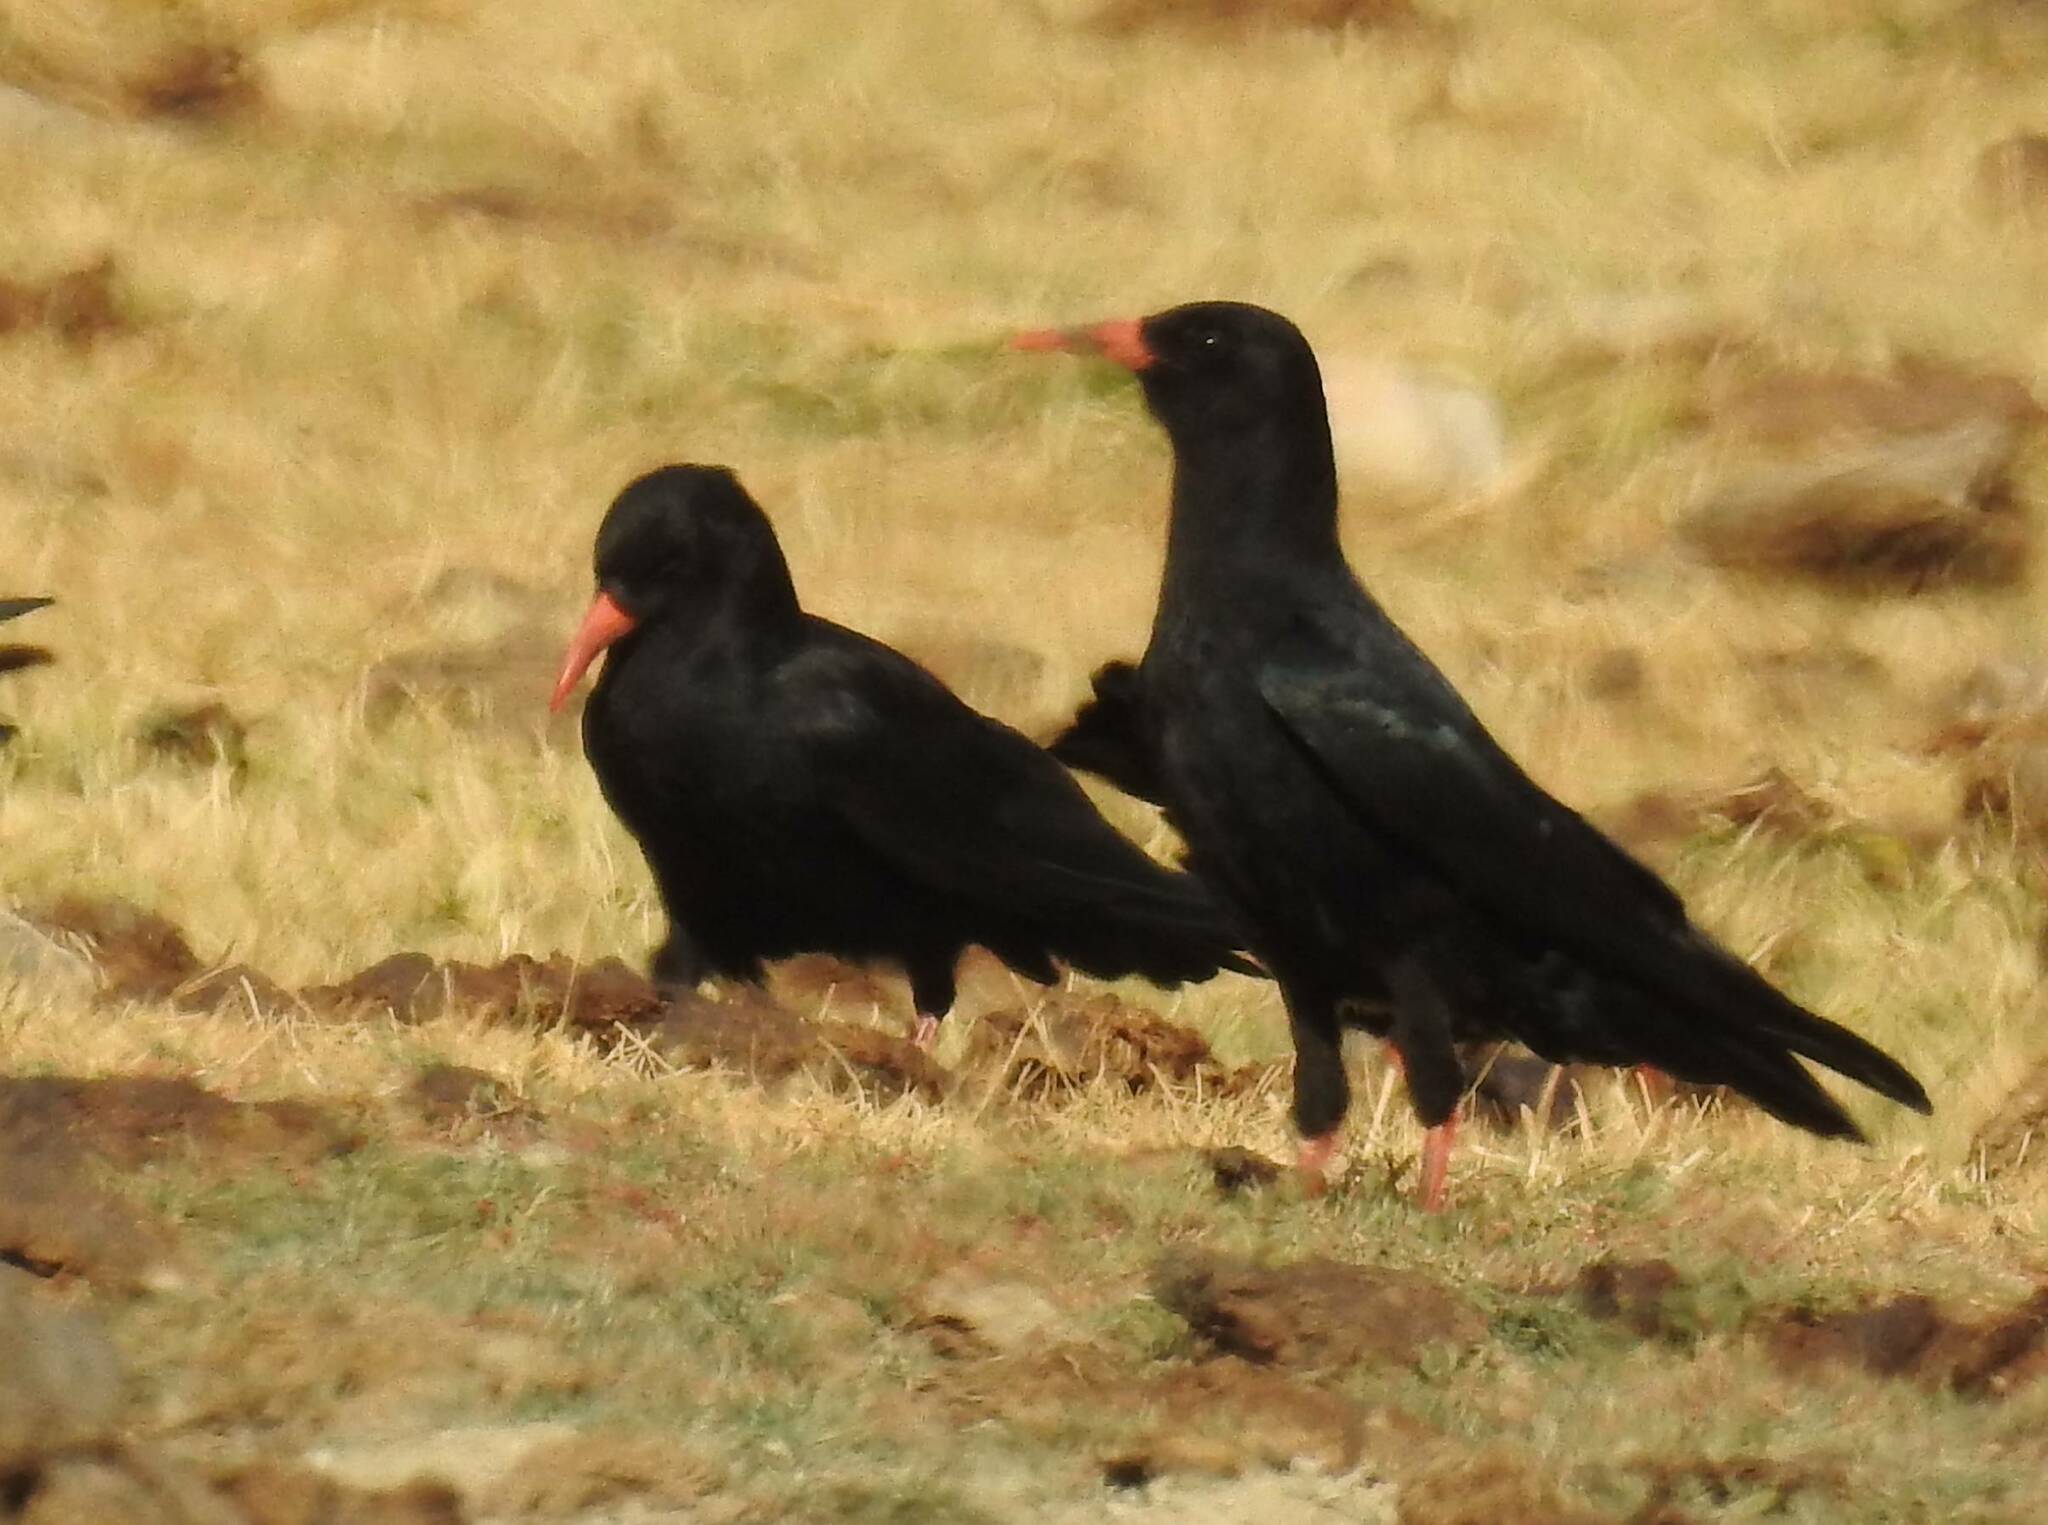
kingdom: Animalia
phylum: Chordata
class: Aves
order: Passeriformes
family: Corvidae
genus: Pyrrhocorax
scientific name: Pyrrhocorax pyrrhocorax
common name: Red-billed chough
